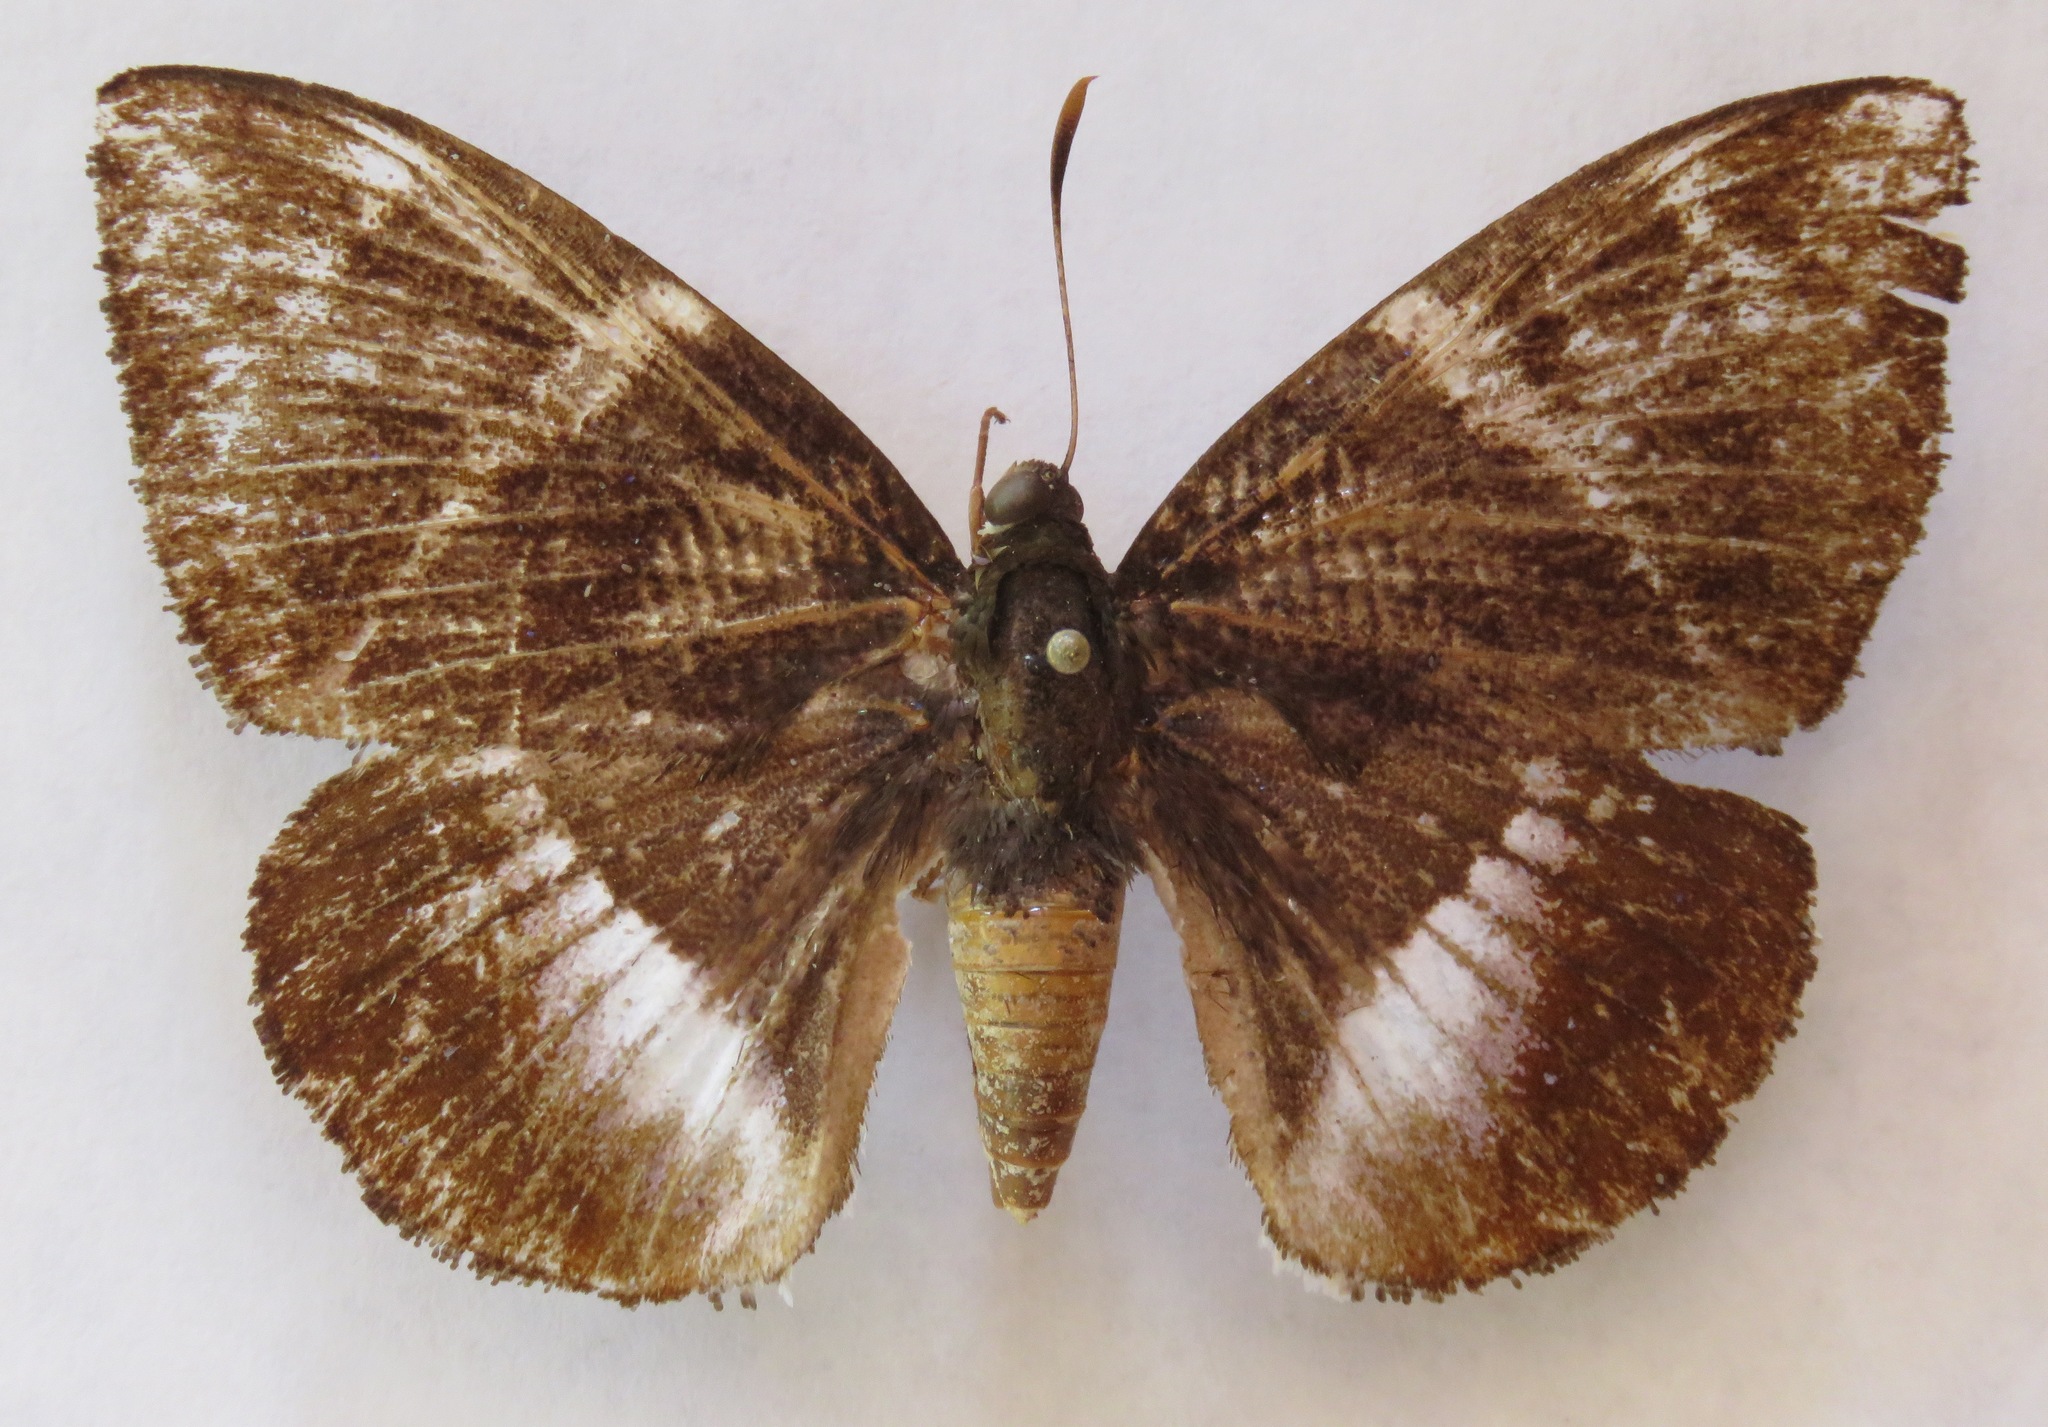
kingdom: Animalia
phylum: Arthropoda
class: Insecta
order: Lepidoptera
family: Castniidae
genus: Castniomera
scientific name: Castniomera atymnius
